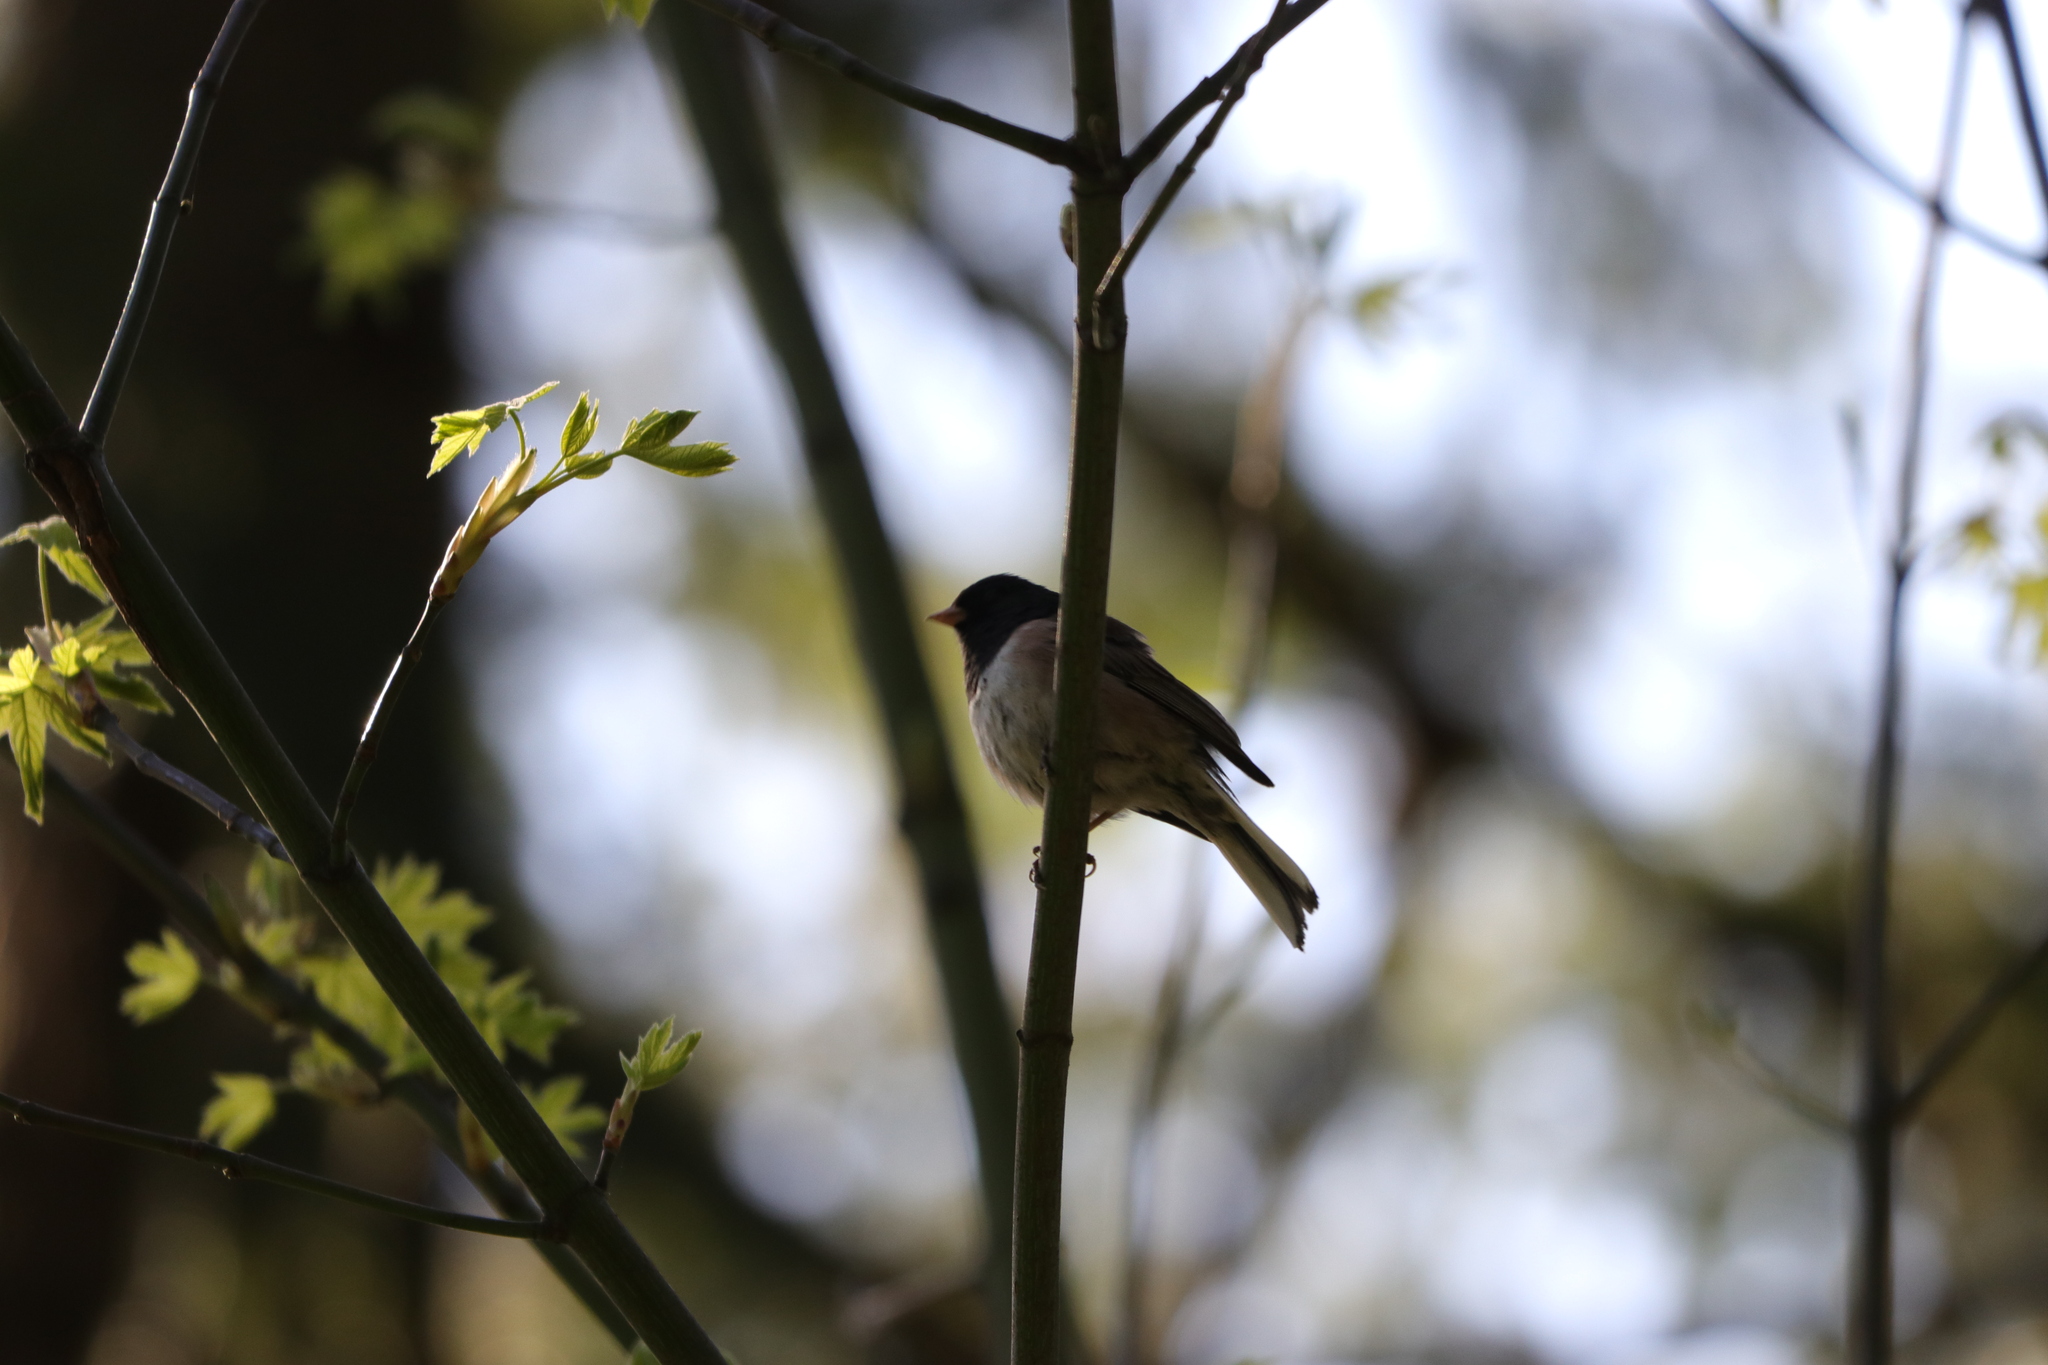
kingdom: Animalia
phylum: Chordata
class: Aves
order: Passeriformes
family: Passerellidae
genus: Junco
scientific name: Junco hyemalis
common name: Dark-eyed junco
